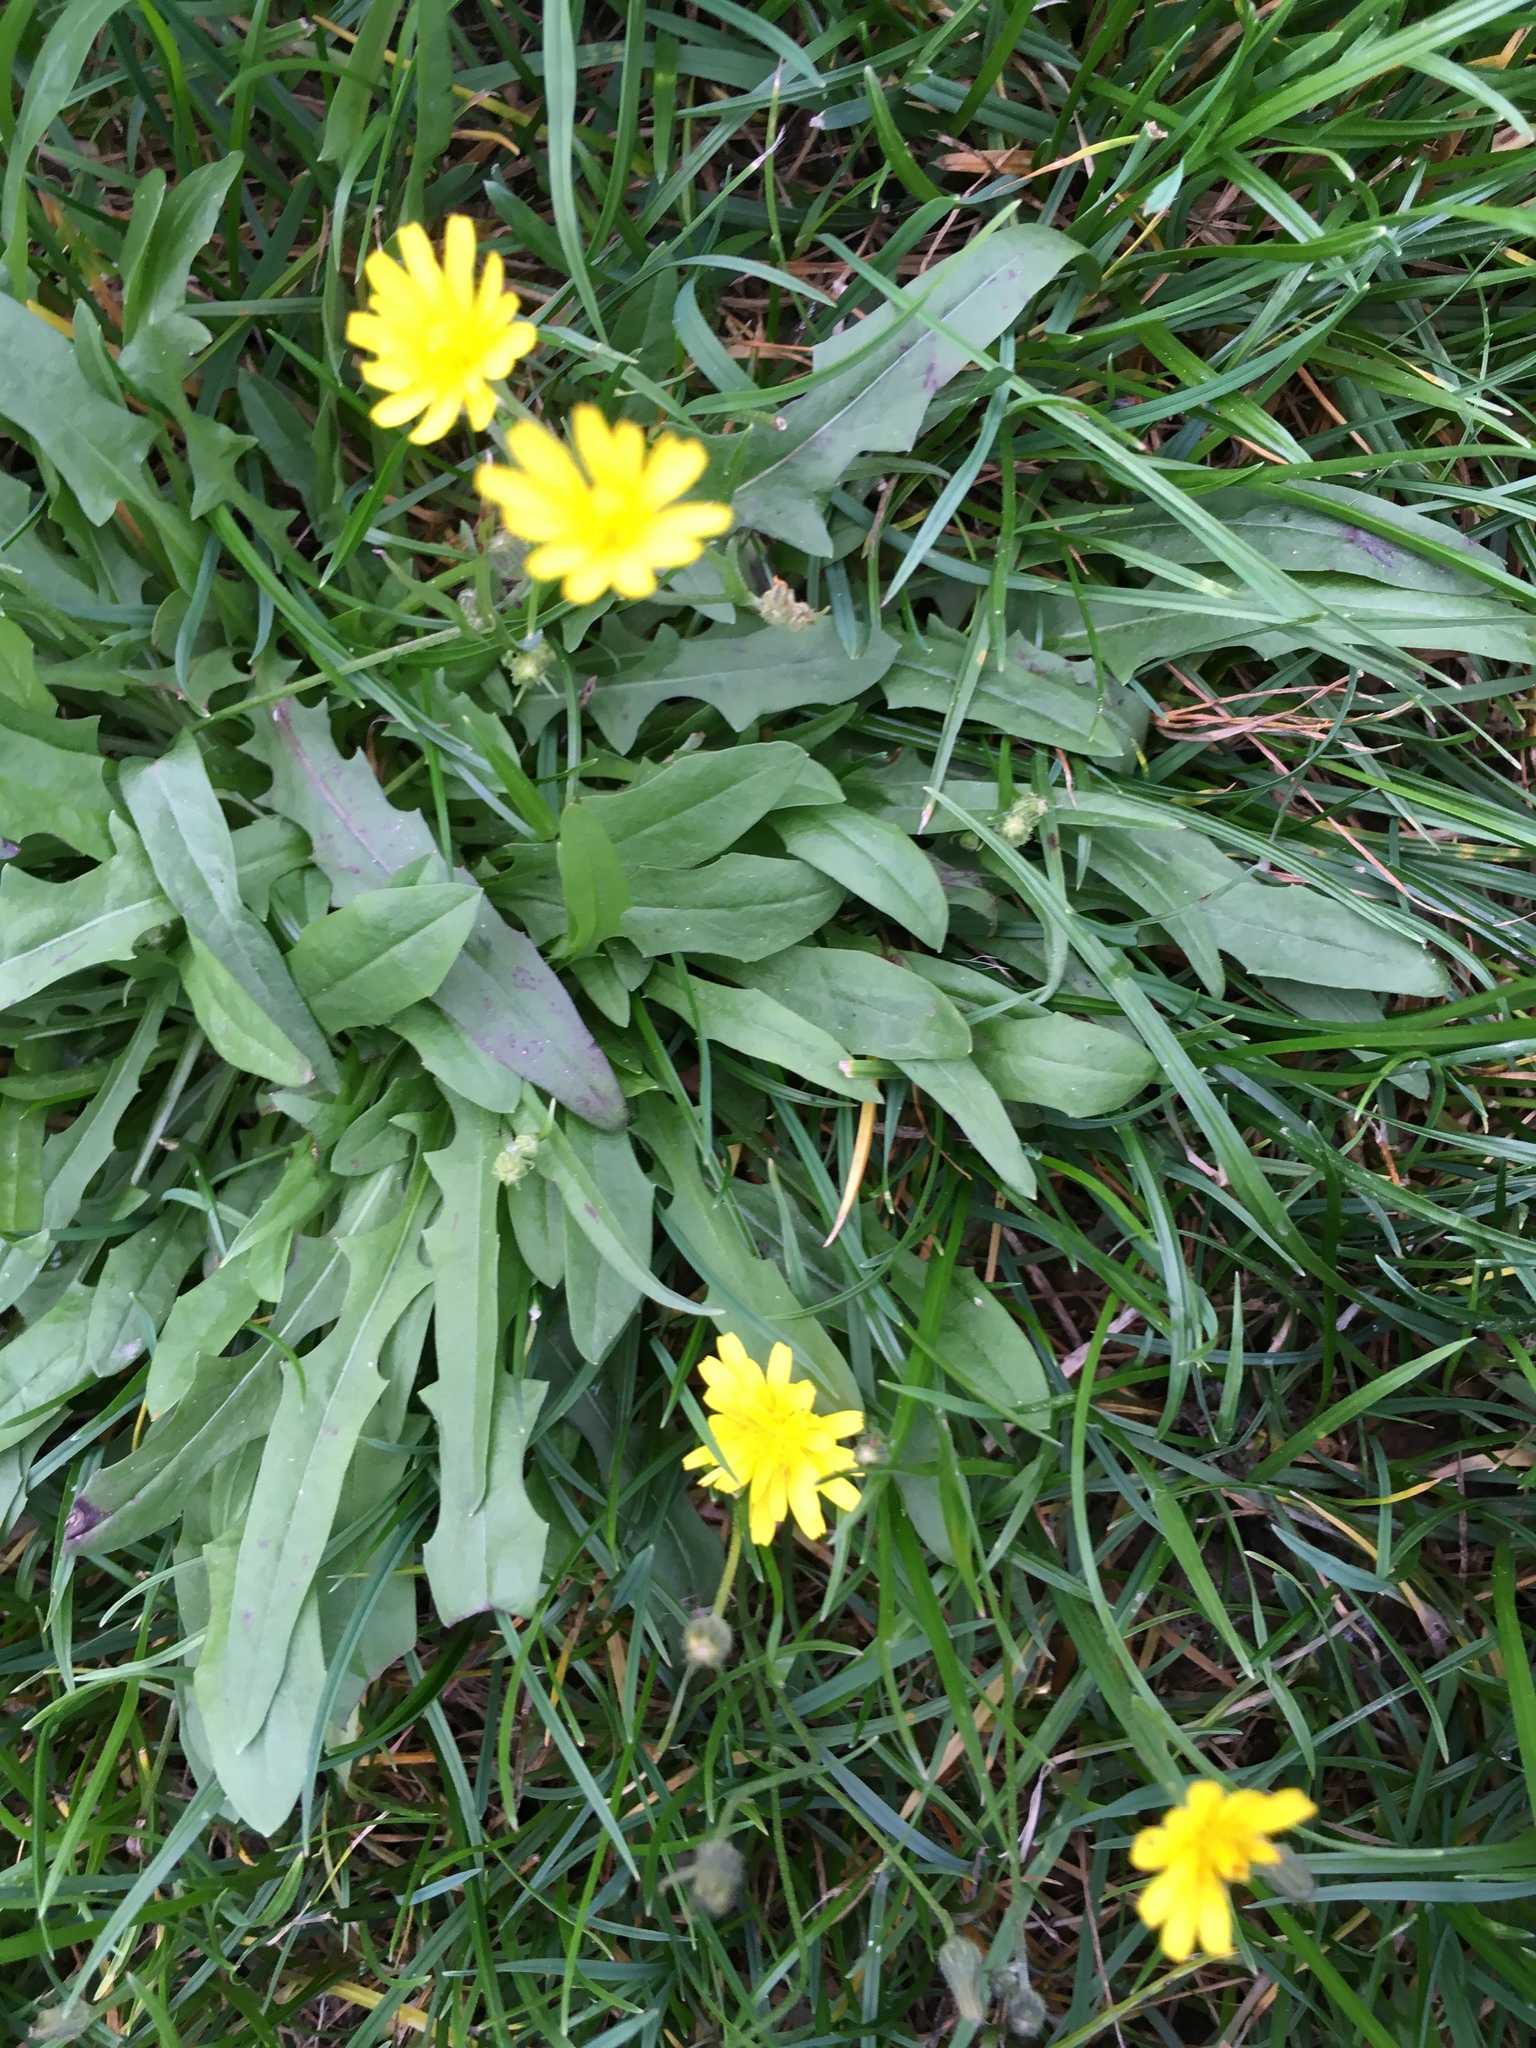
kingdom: Plantae
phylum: Tracheophyta
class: Magnoliopsida
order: Asterales
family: Asteraceae
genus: Scorzoneroides
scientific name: Scorzoneroides autumnalis
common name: Autumn hawkbit
